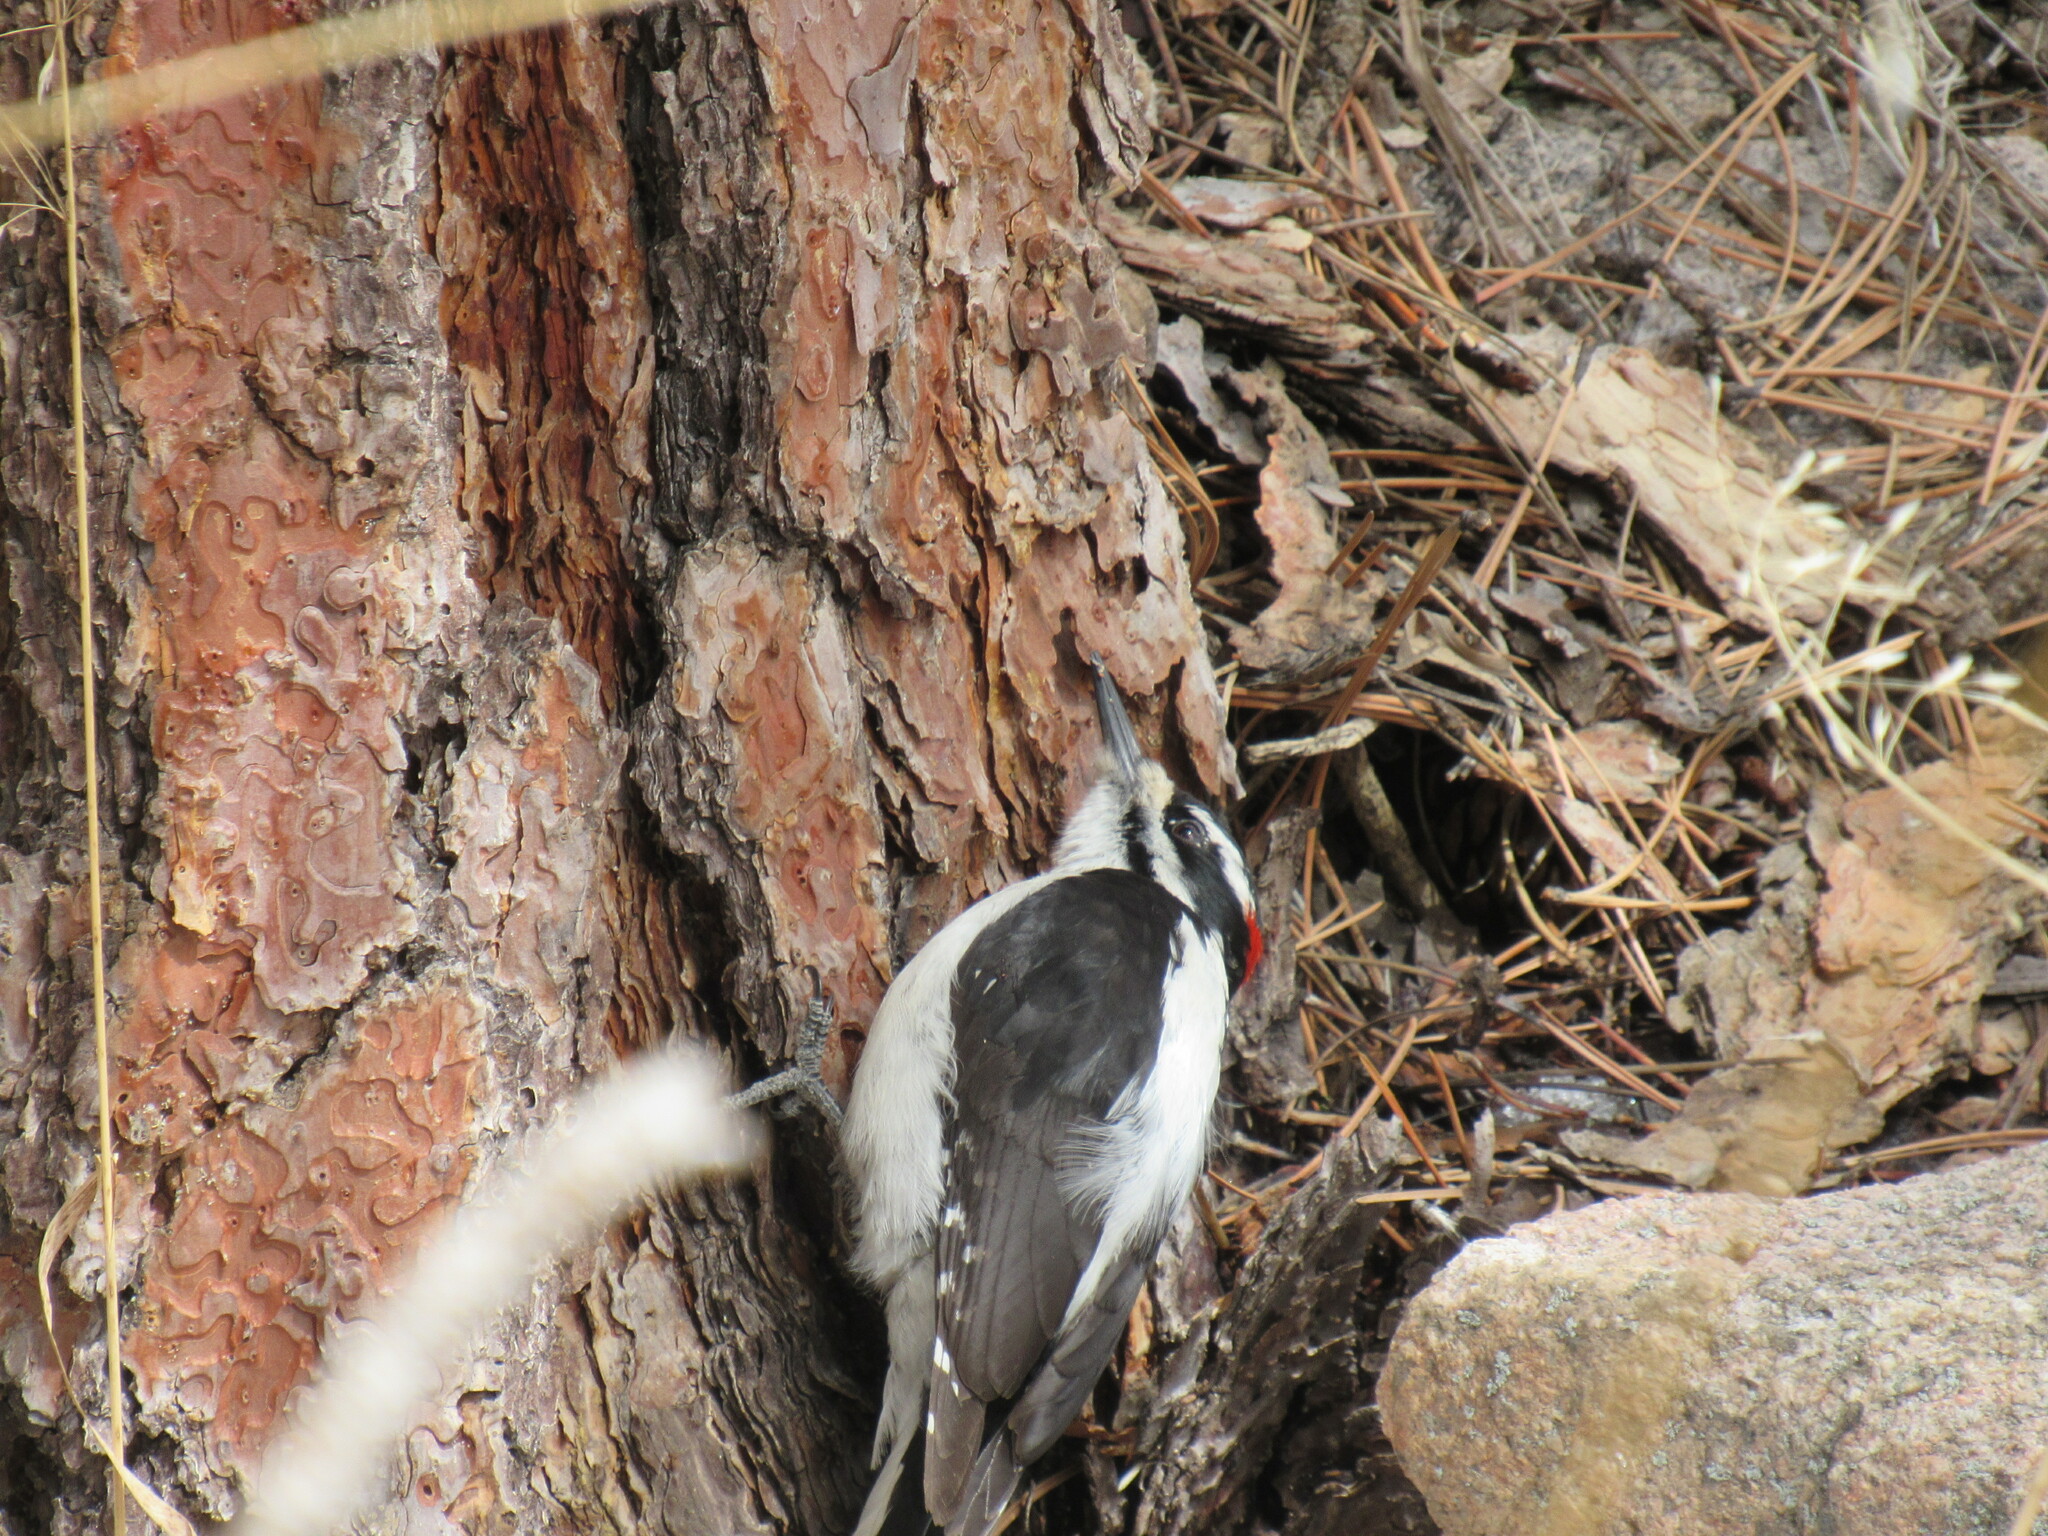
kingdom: Animalia
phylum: Chordata
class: Aves
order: Piciformes
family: Picidae
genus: Leuconotopicus
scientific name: Leuconotopicus villosus
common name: Hairy woodpecker
